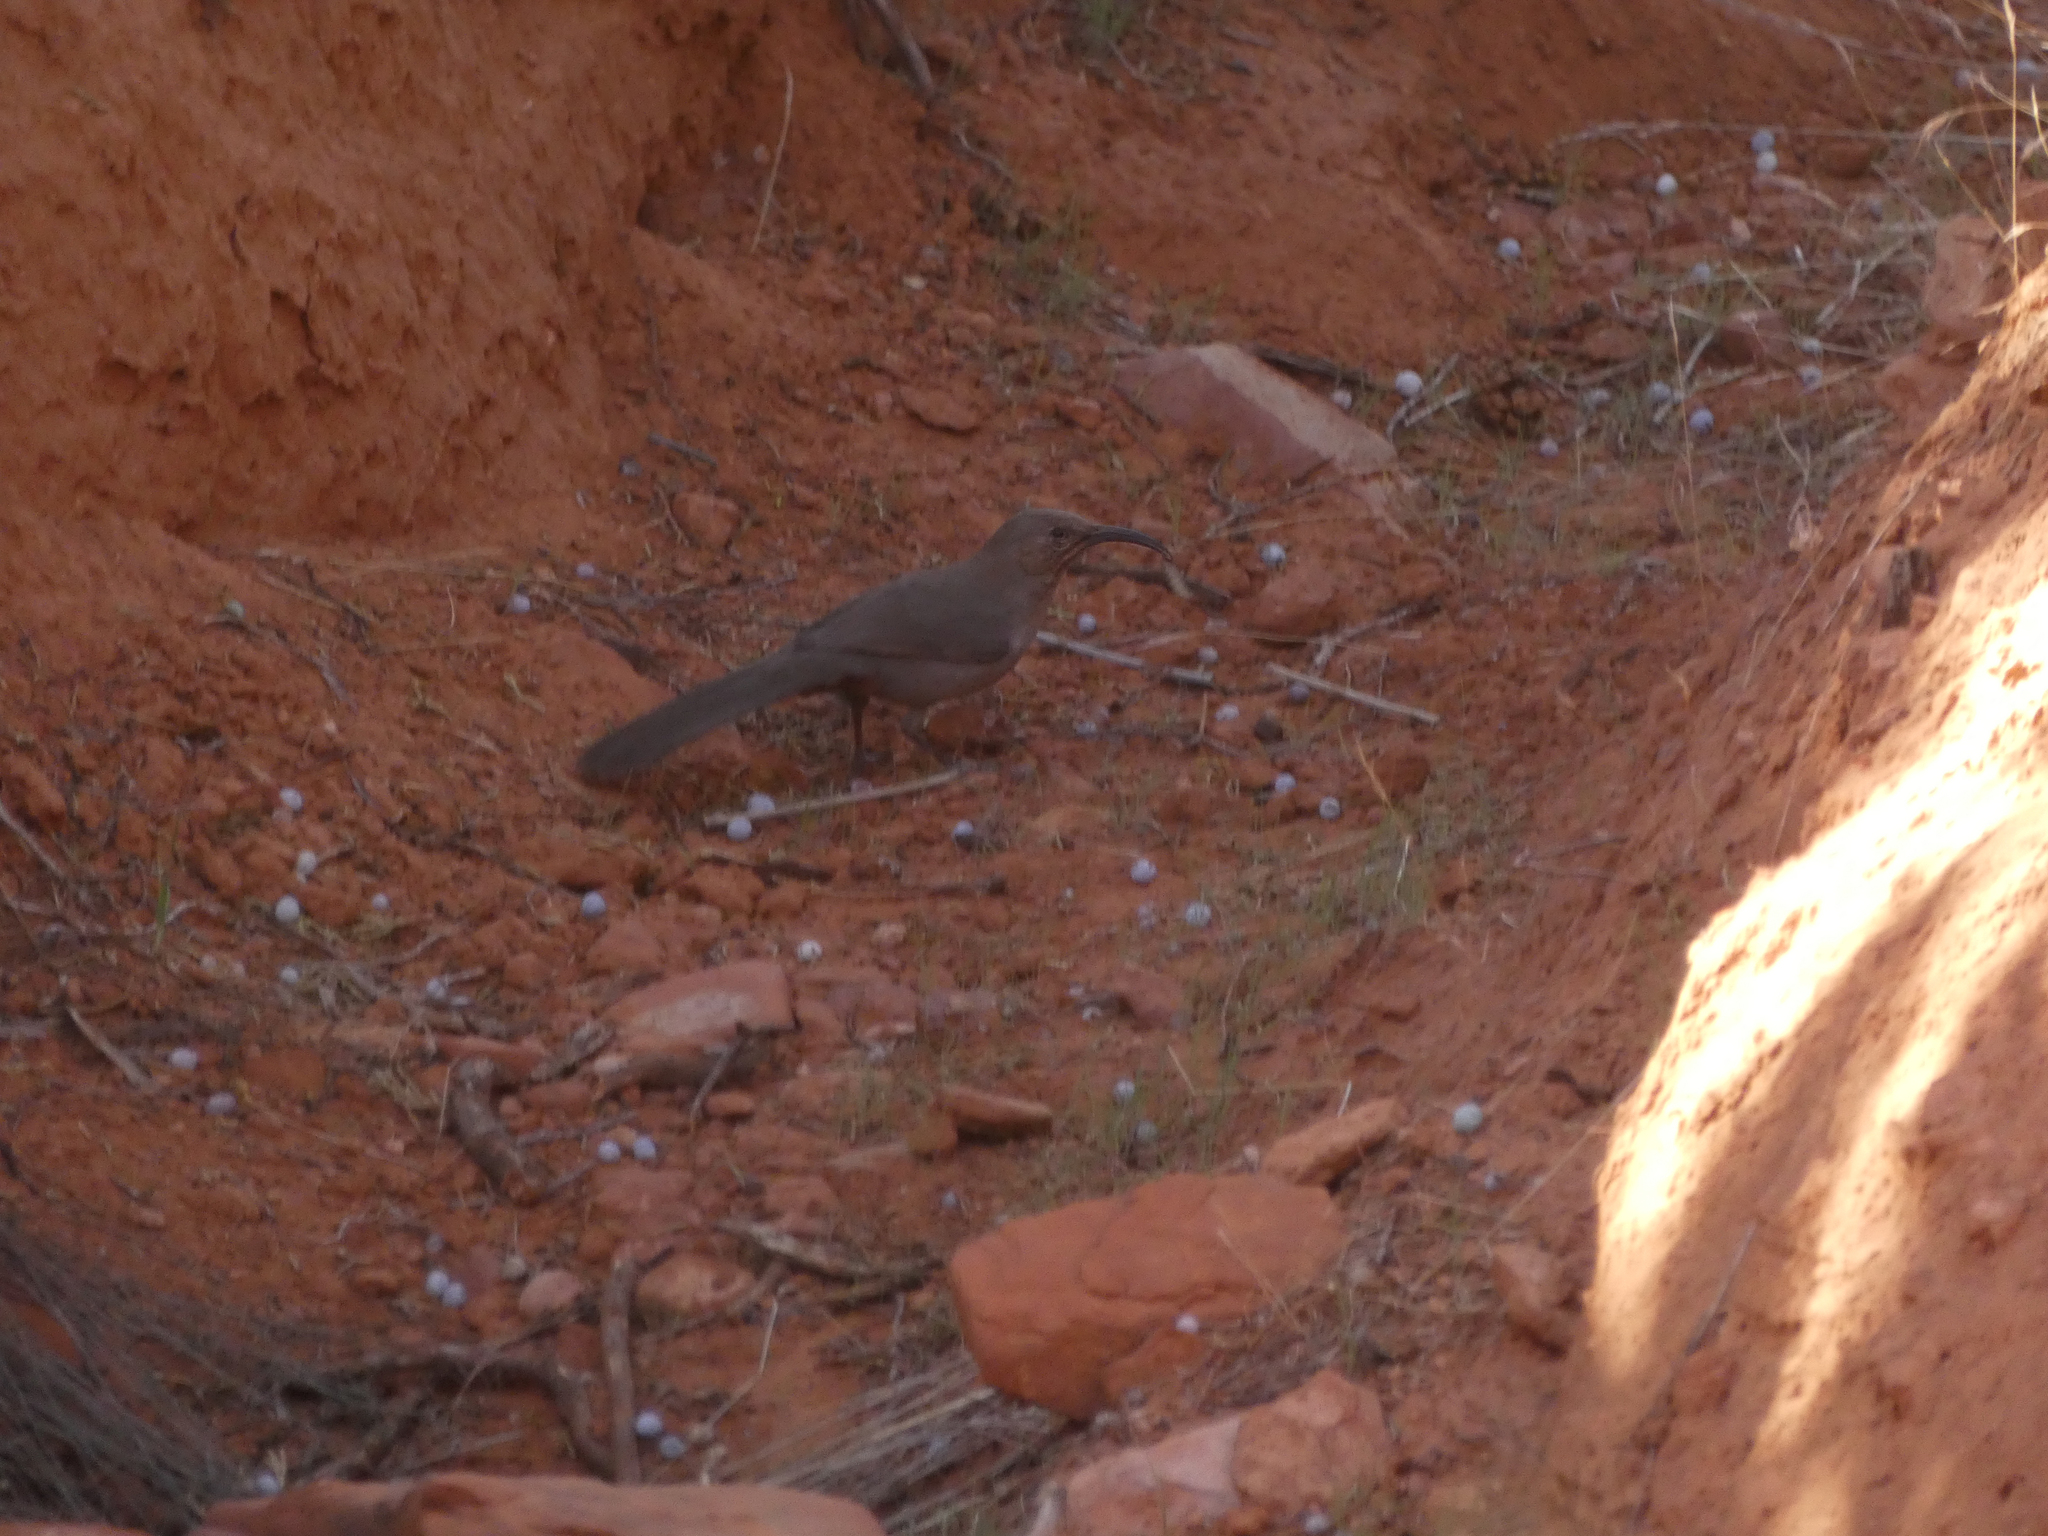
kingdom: Animalia
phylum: Chordata
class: Aves
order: Passeriformes
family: Mimidae
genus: Toxostoma
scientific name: Toxostoma crissale
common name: Crissal thrasher
